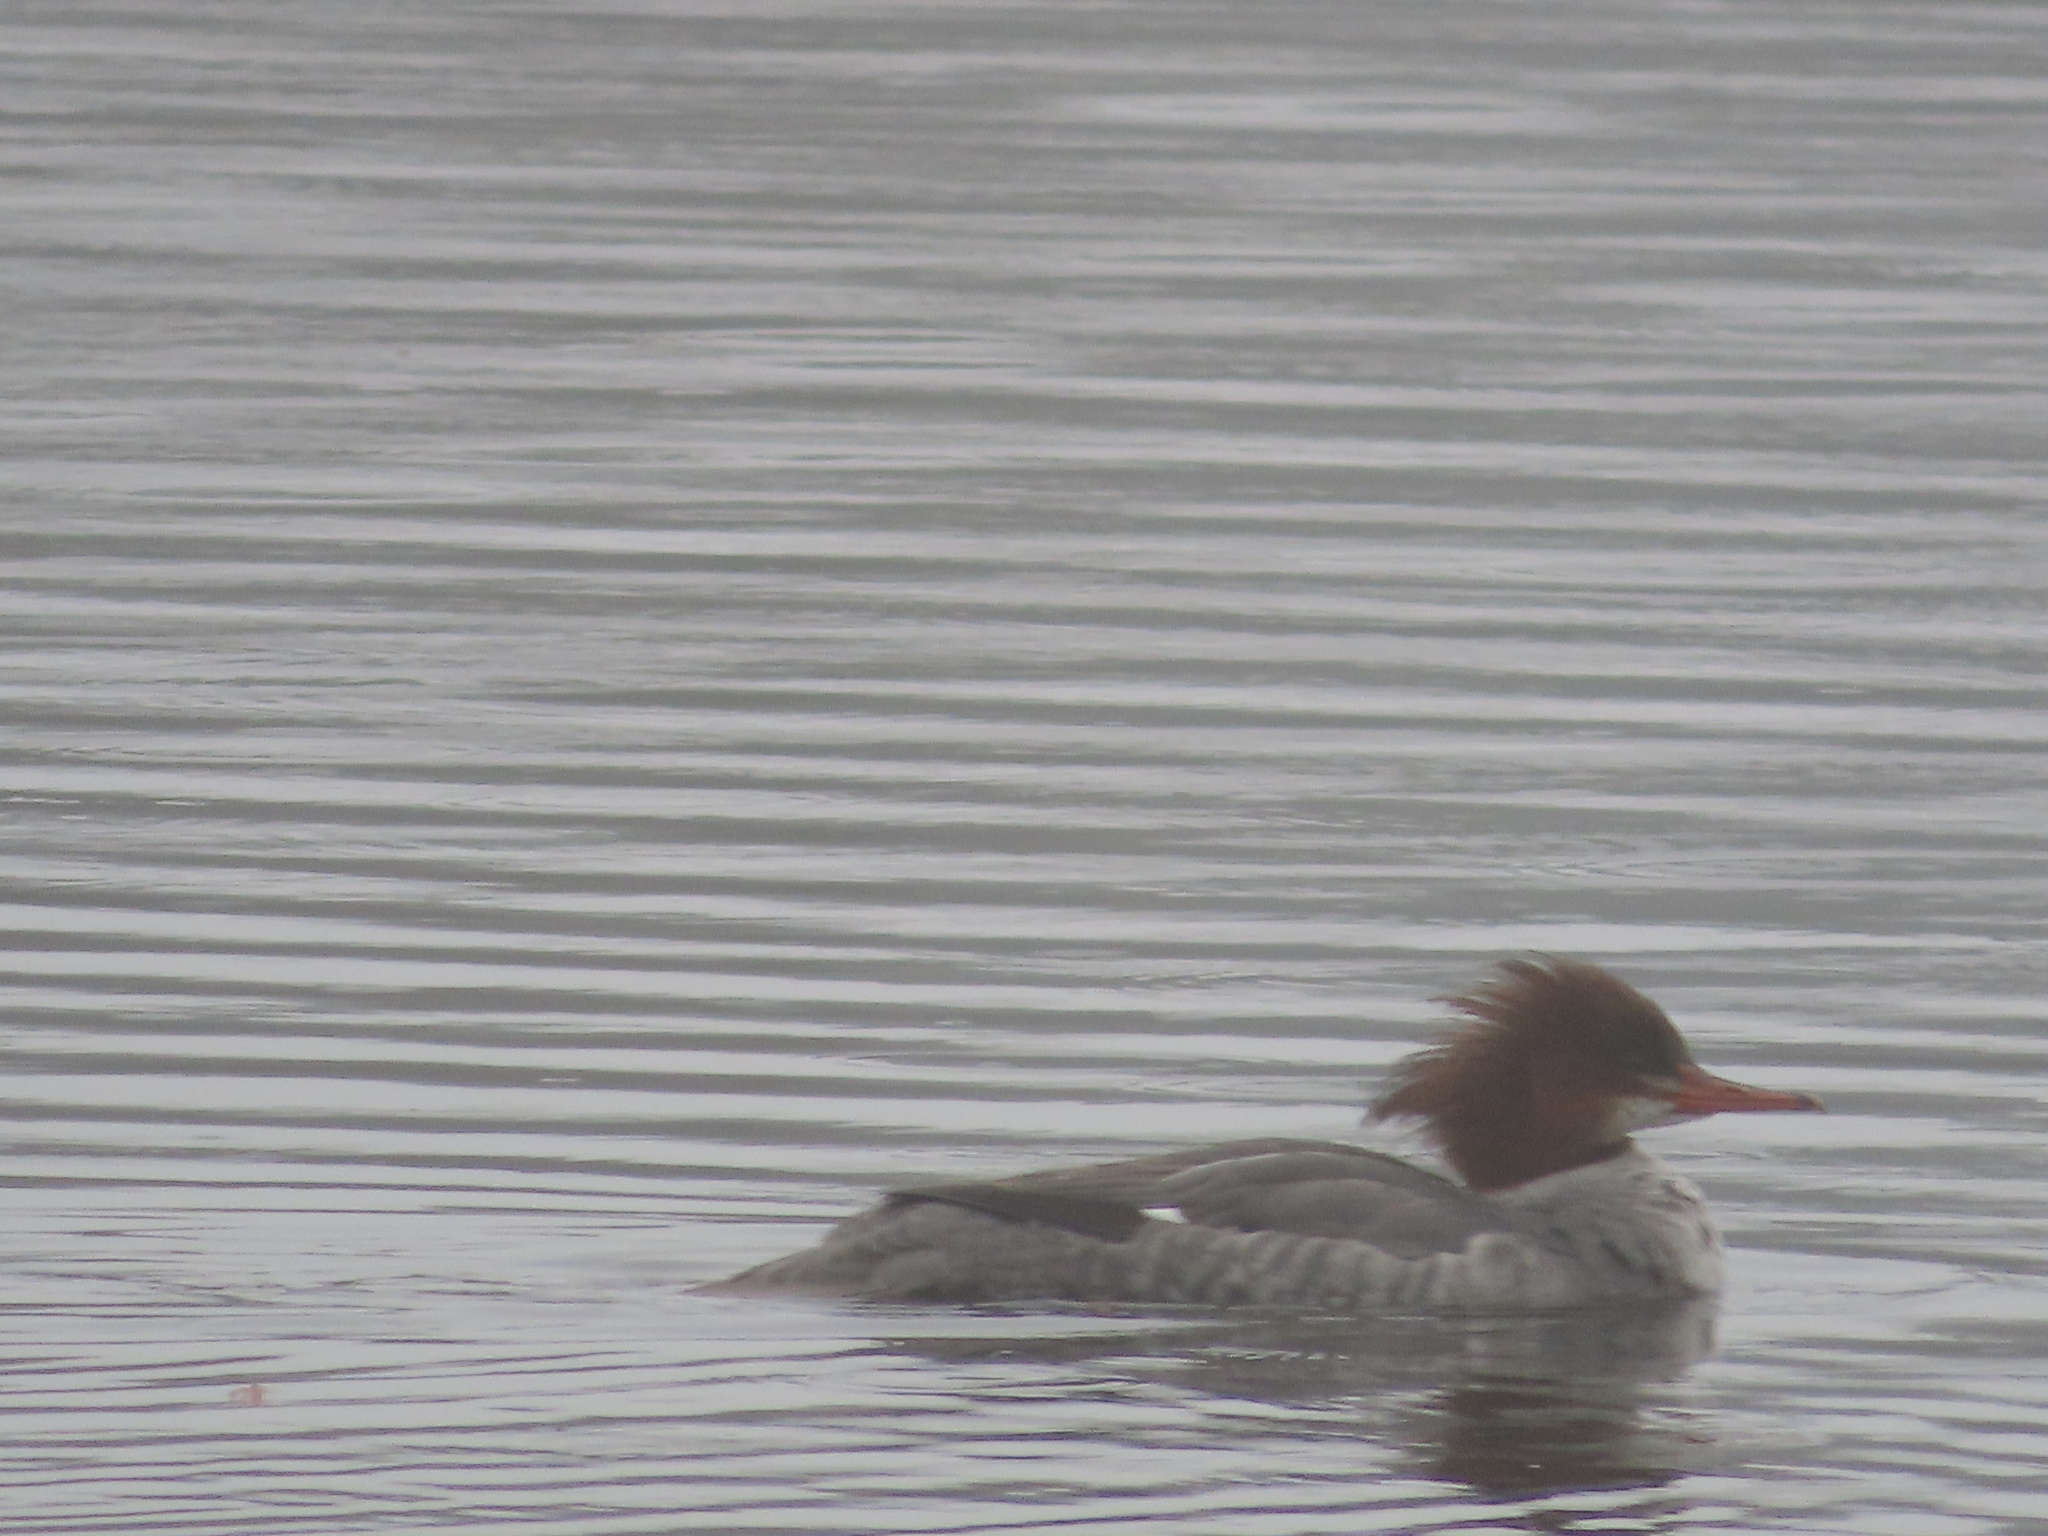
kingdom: Animalia
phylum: Chordata
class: Aves
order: Anseriformes
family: Anatidae
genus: Mergus
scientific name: Mergus merganser
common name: Common merganser
